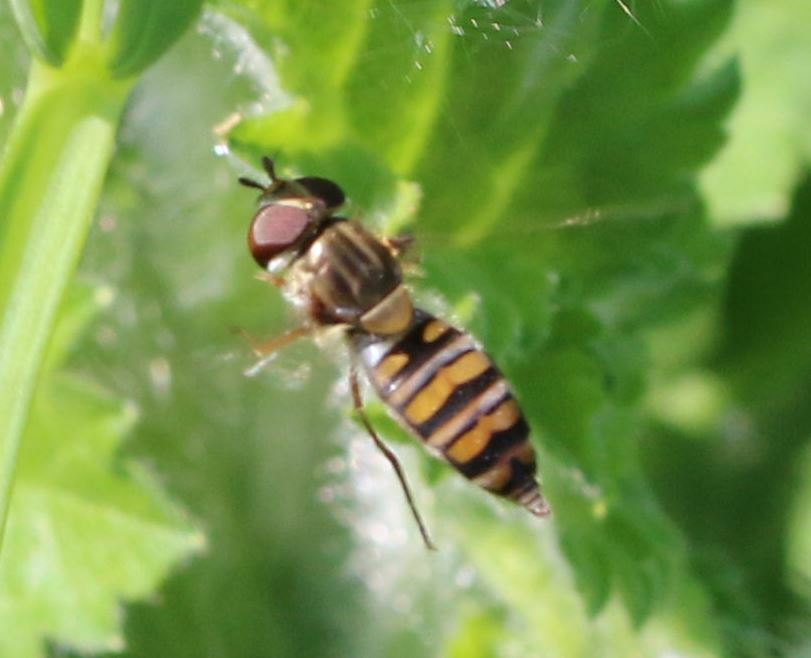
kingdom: Animalia
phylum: Arthropoda
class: Insecta
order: Diptera
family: Syrphidae
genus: Episyrphus
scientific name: Episyrphus balteatus
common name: Marmalade hoverfly
